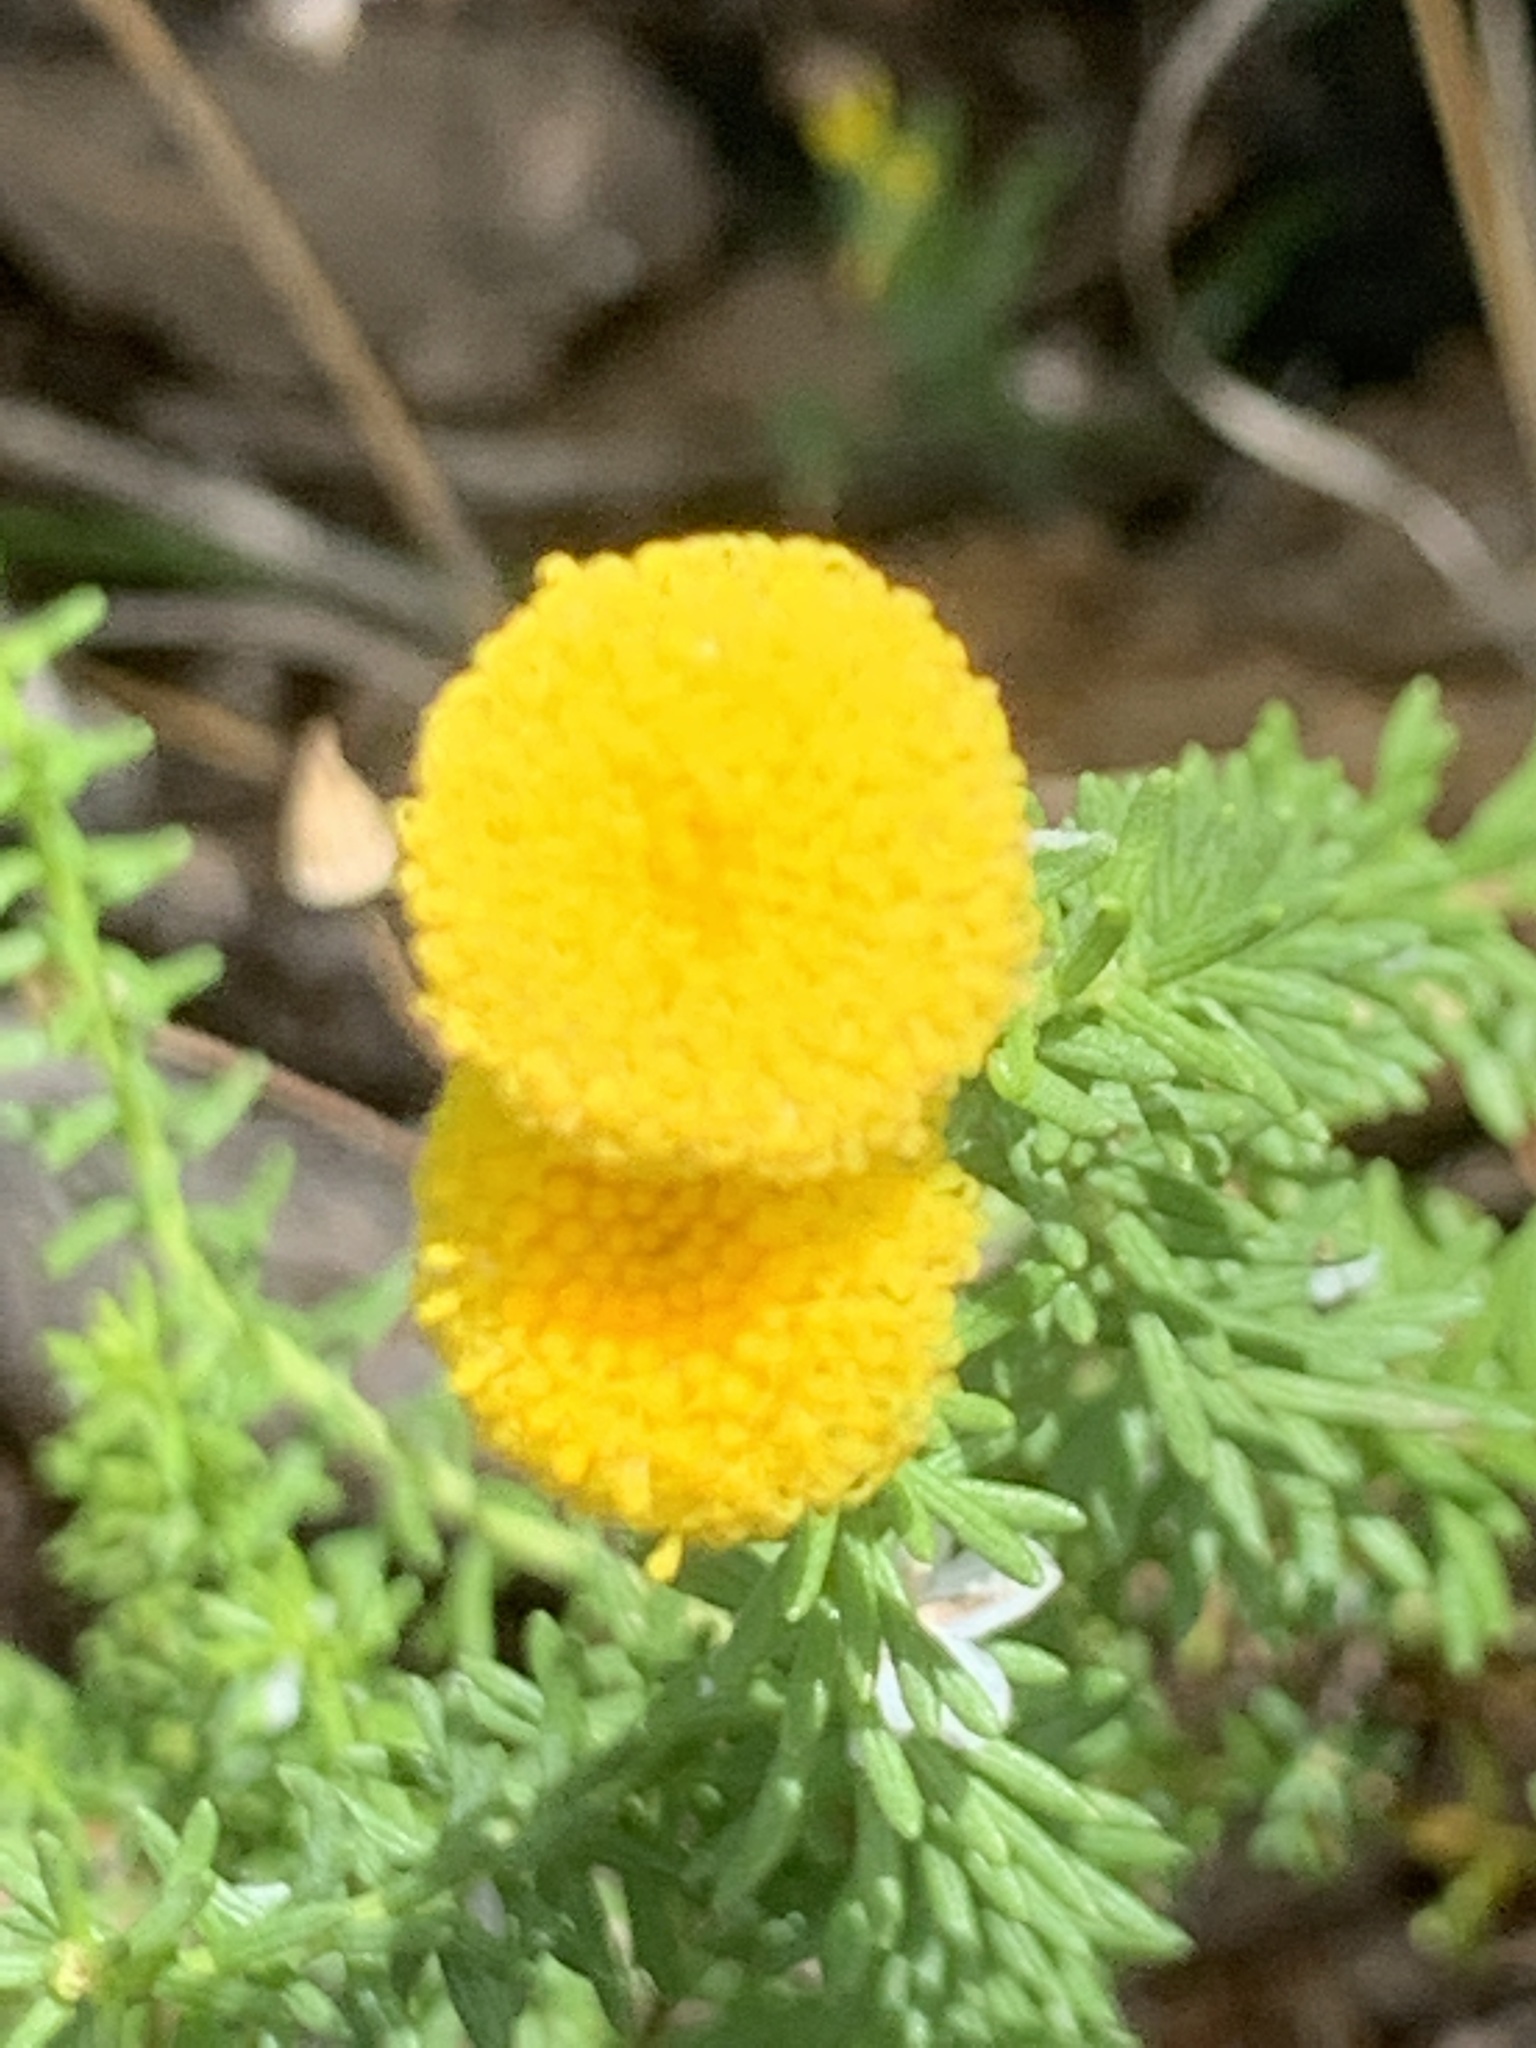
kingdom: Plantae
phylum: Tracheophyta
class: Magnoliopsida
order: Asterales
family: Asteraceae
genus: Chrysocoma
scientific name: Chrysocoma cernua
